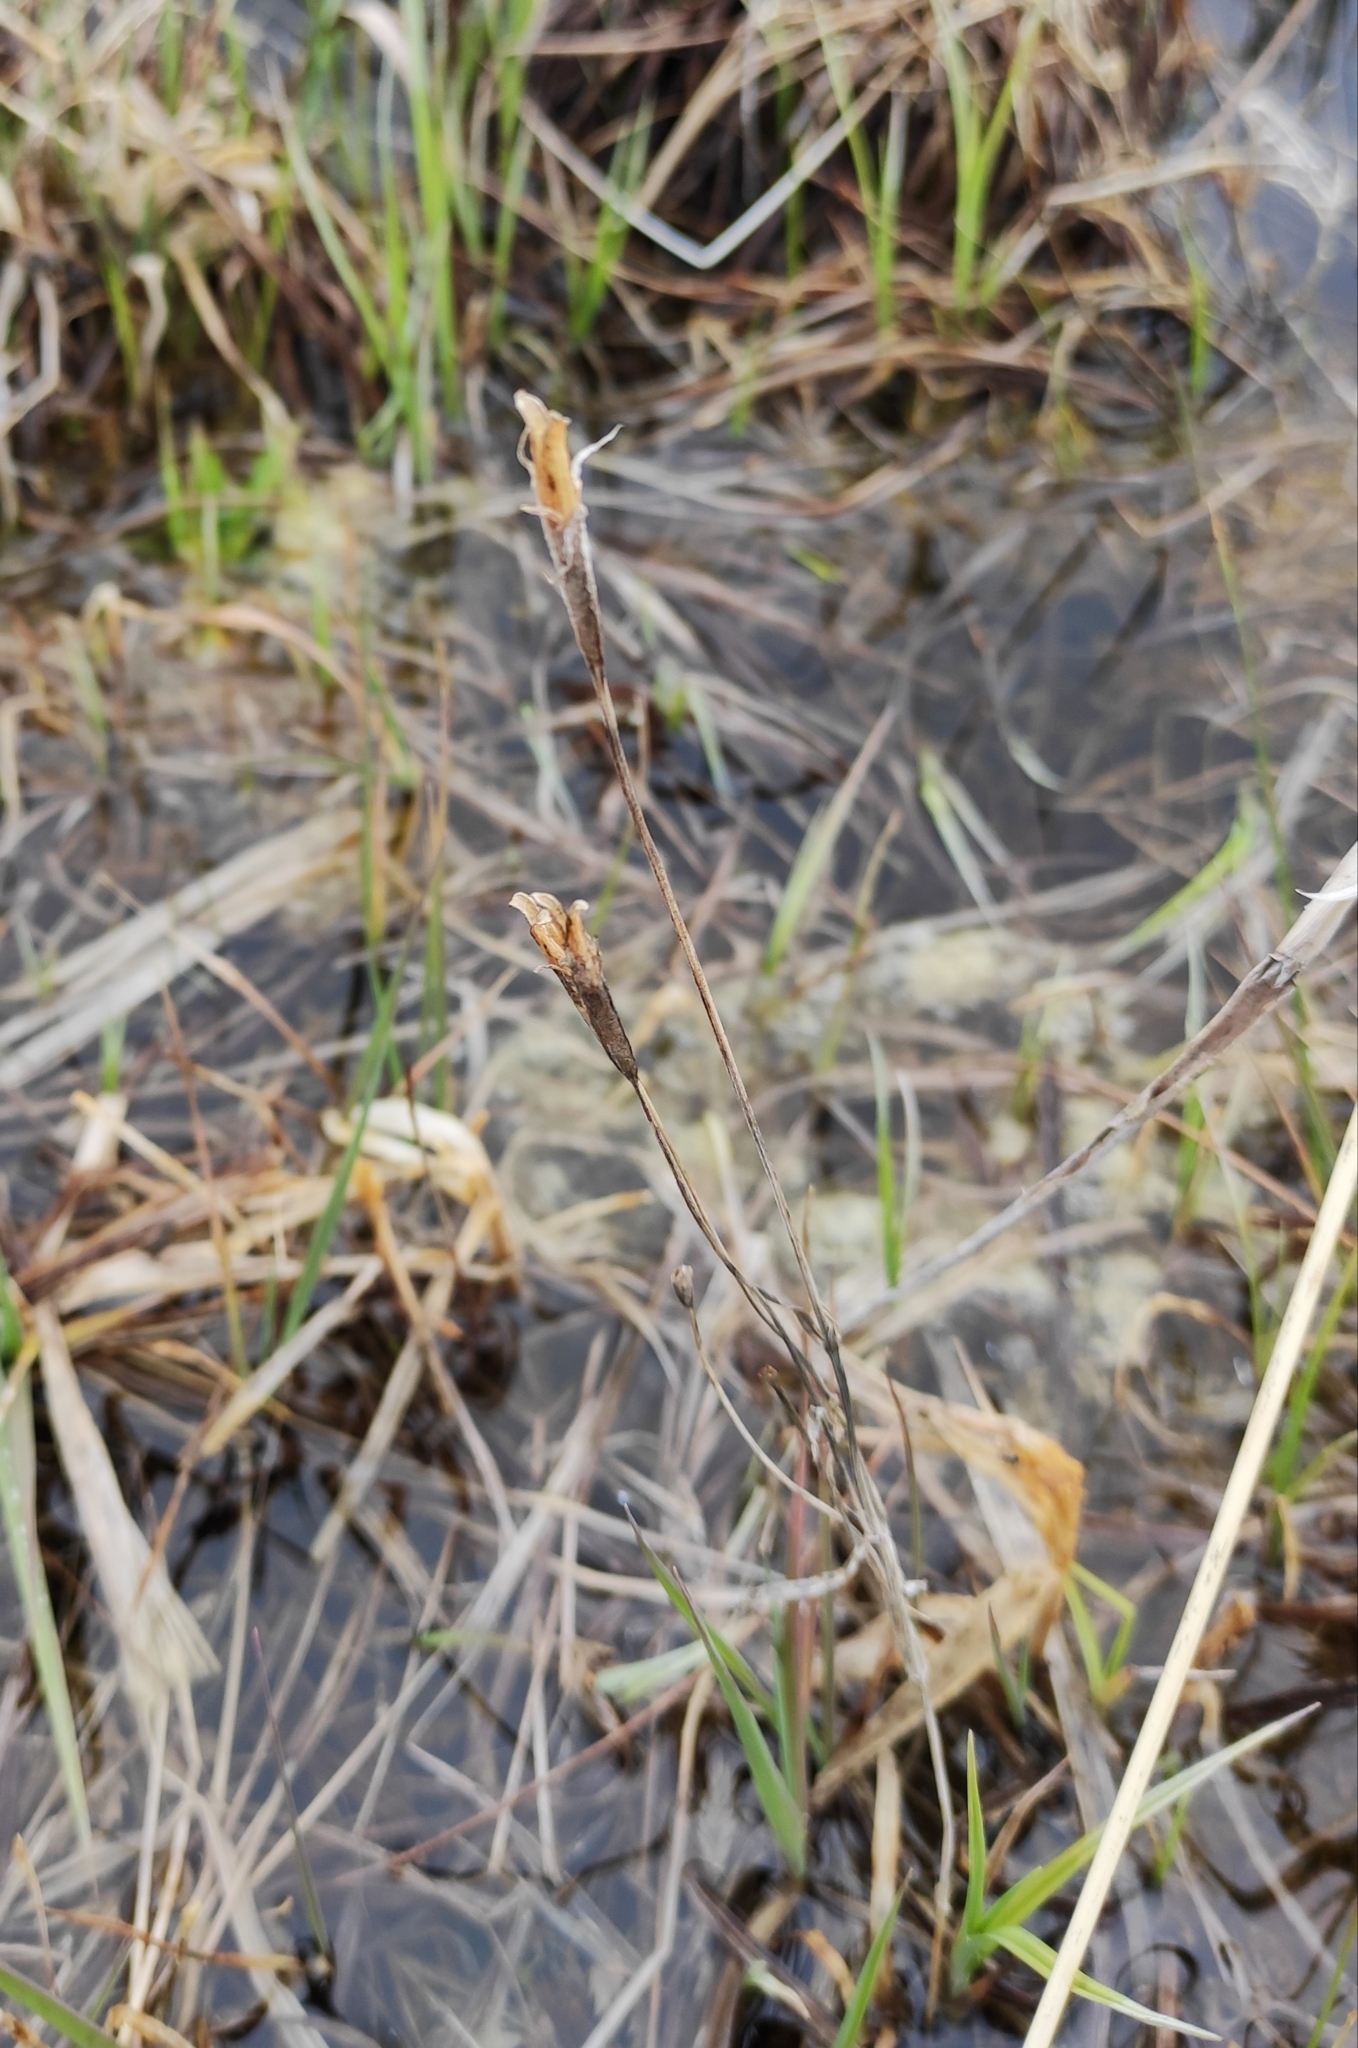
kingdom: Plantae
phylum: Tracheophyta
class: Magnoliopsida
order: Gentianales
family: Gentianaceae
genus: Gentianopsis
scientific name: Gentianopsis barbata
